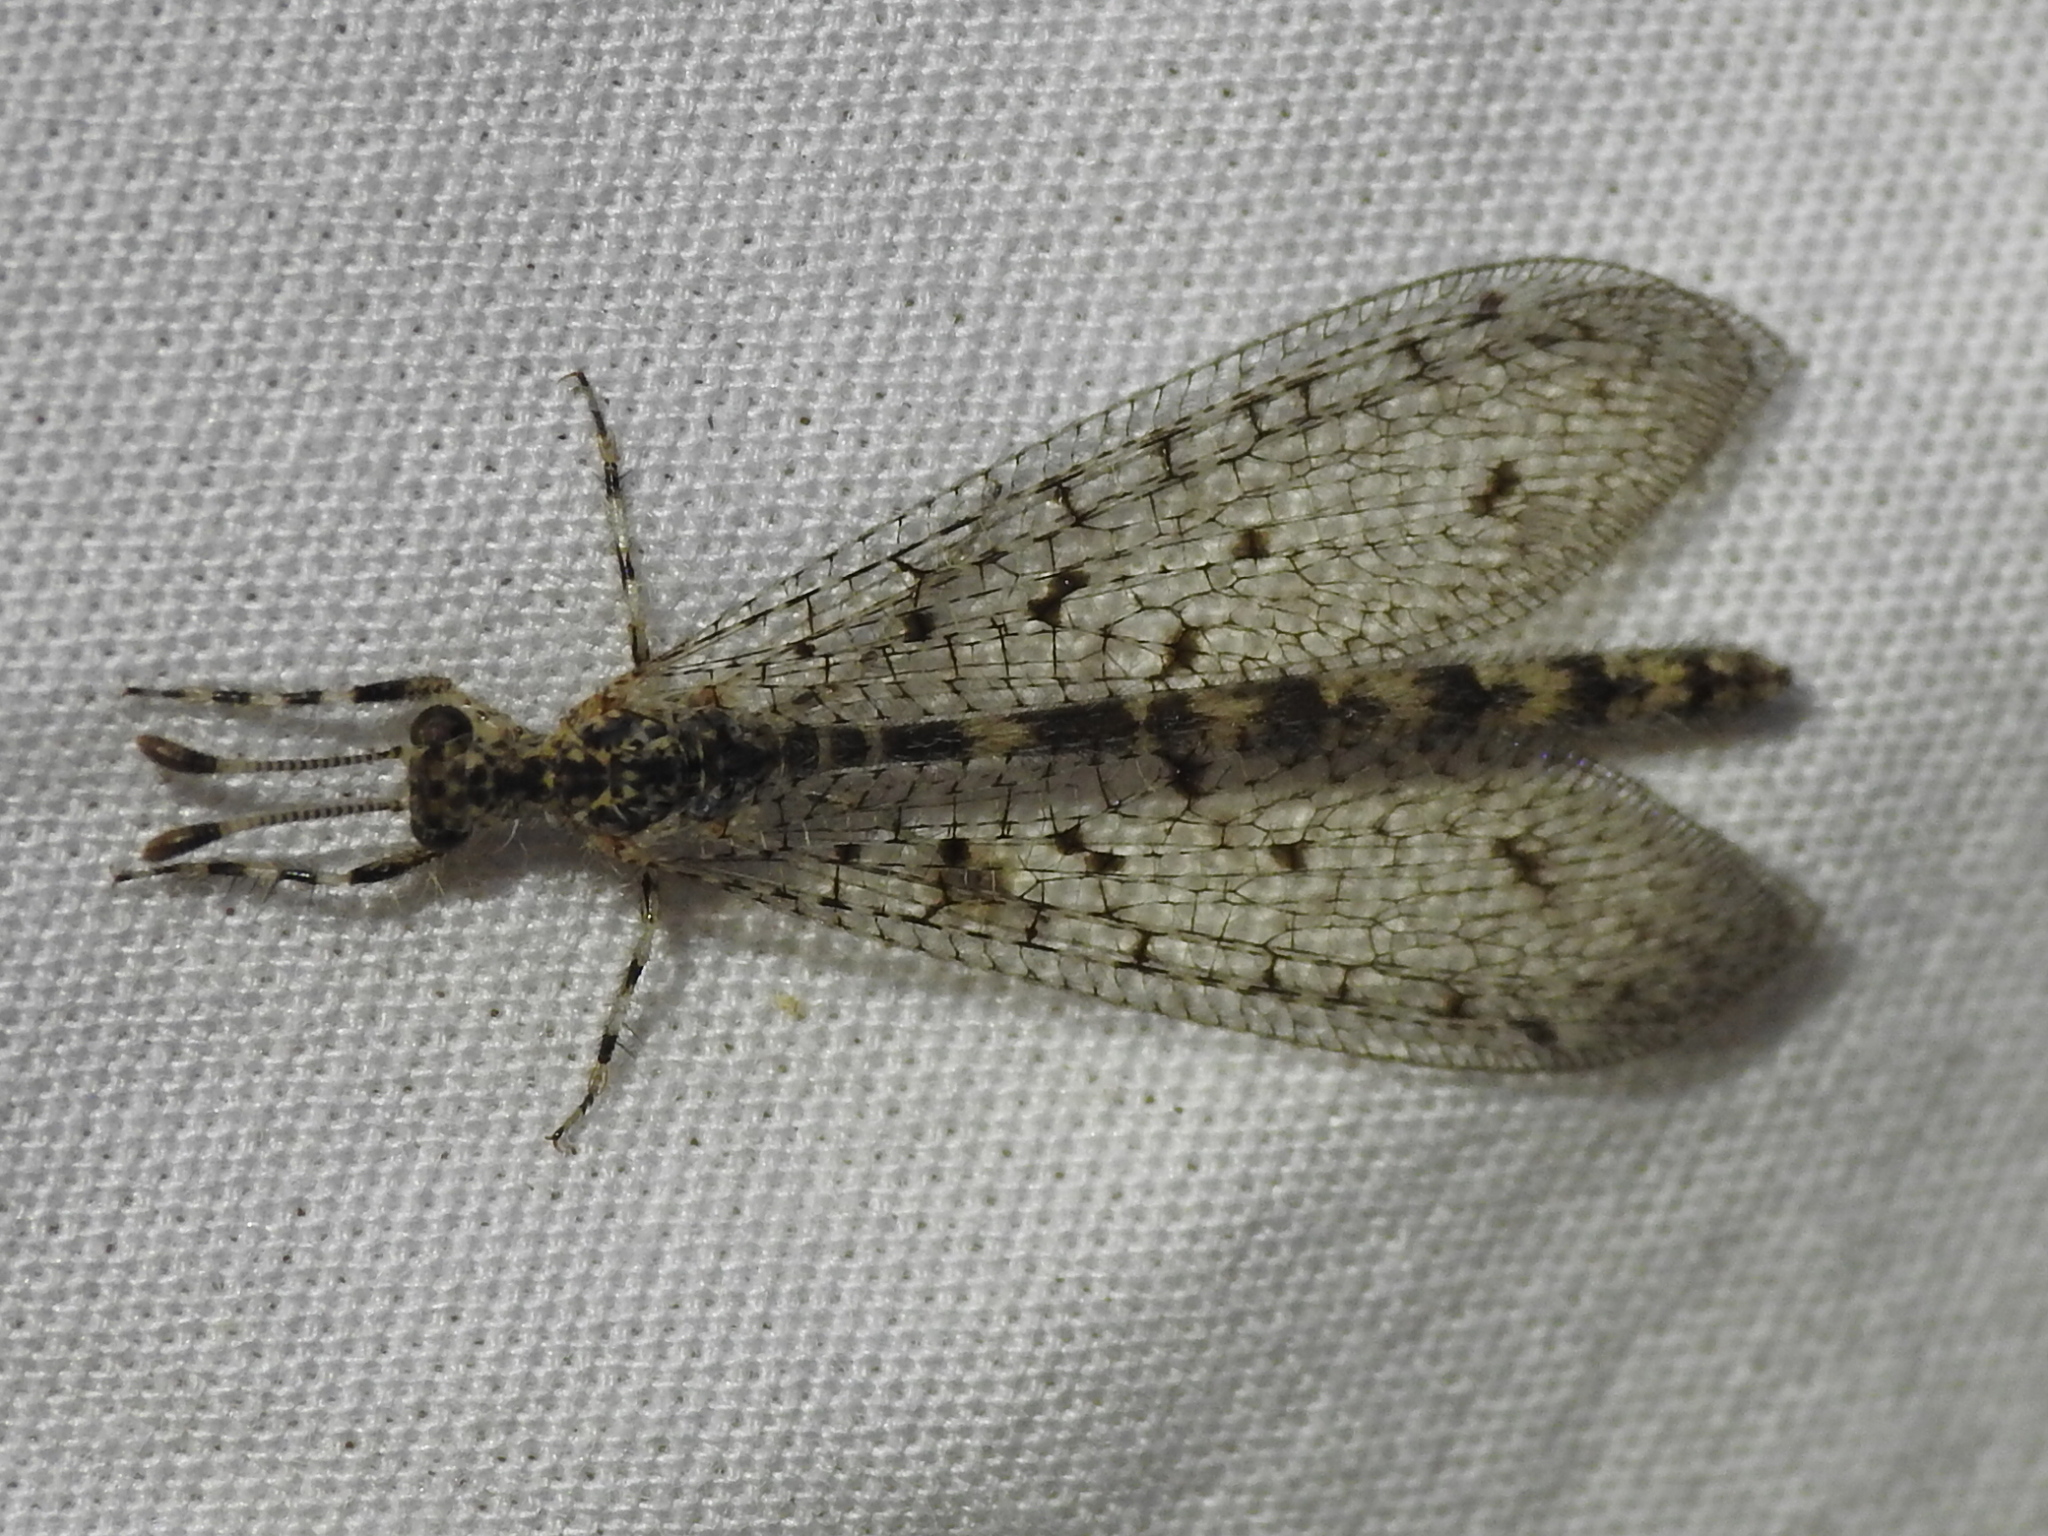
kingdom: Animalia
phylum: Arthropoda
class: Insecta
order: Neuroptera
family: Myrmeleontidae
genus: Chaetoleon
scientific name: Chaetoleon pusillus
